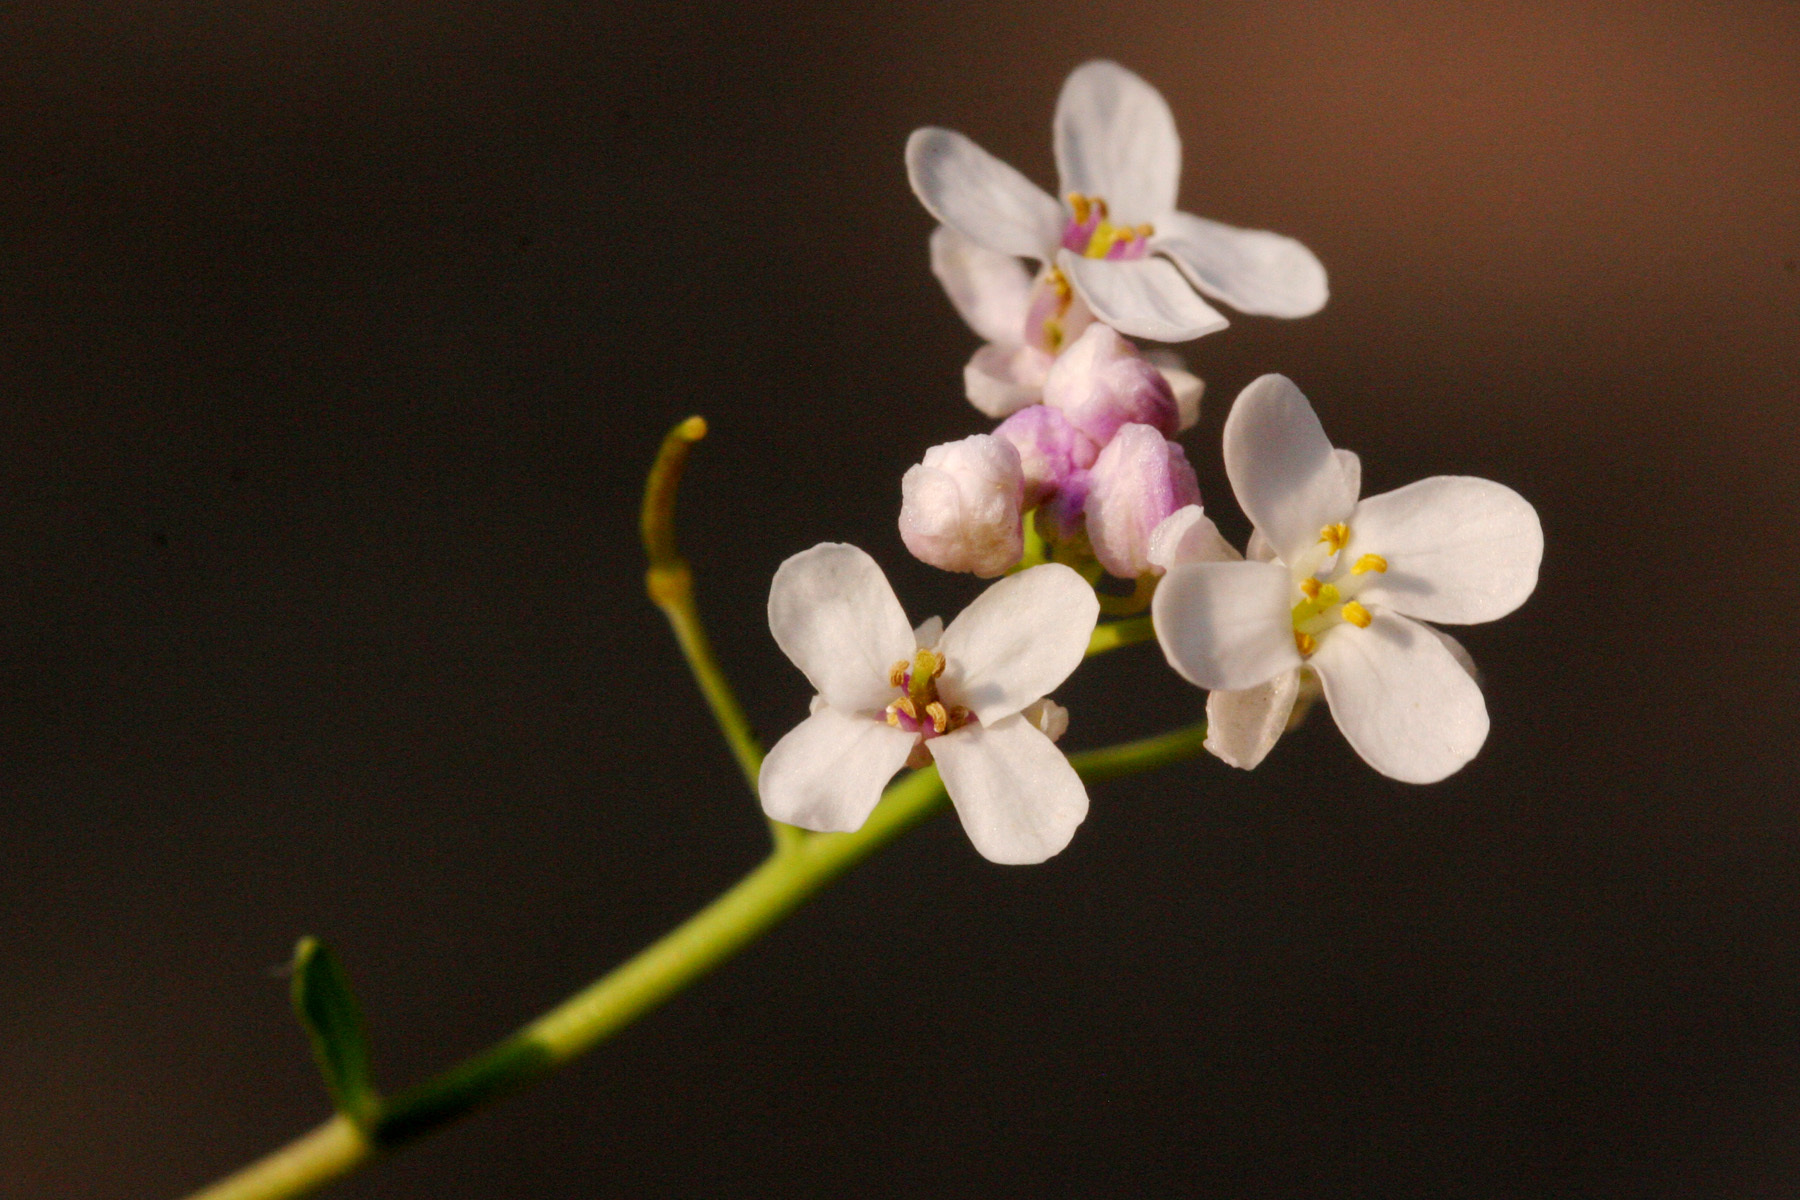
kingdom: Plantae
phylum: Tracheophyta
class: Magnoliopsida
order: Brassicales
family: Brassicaceae
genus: Mostacillastrum
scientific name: Mostacillastrum subauriculatum
